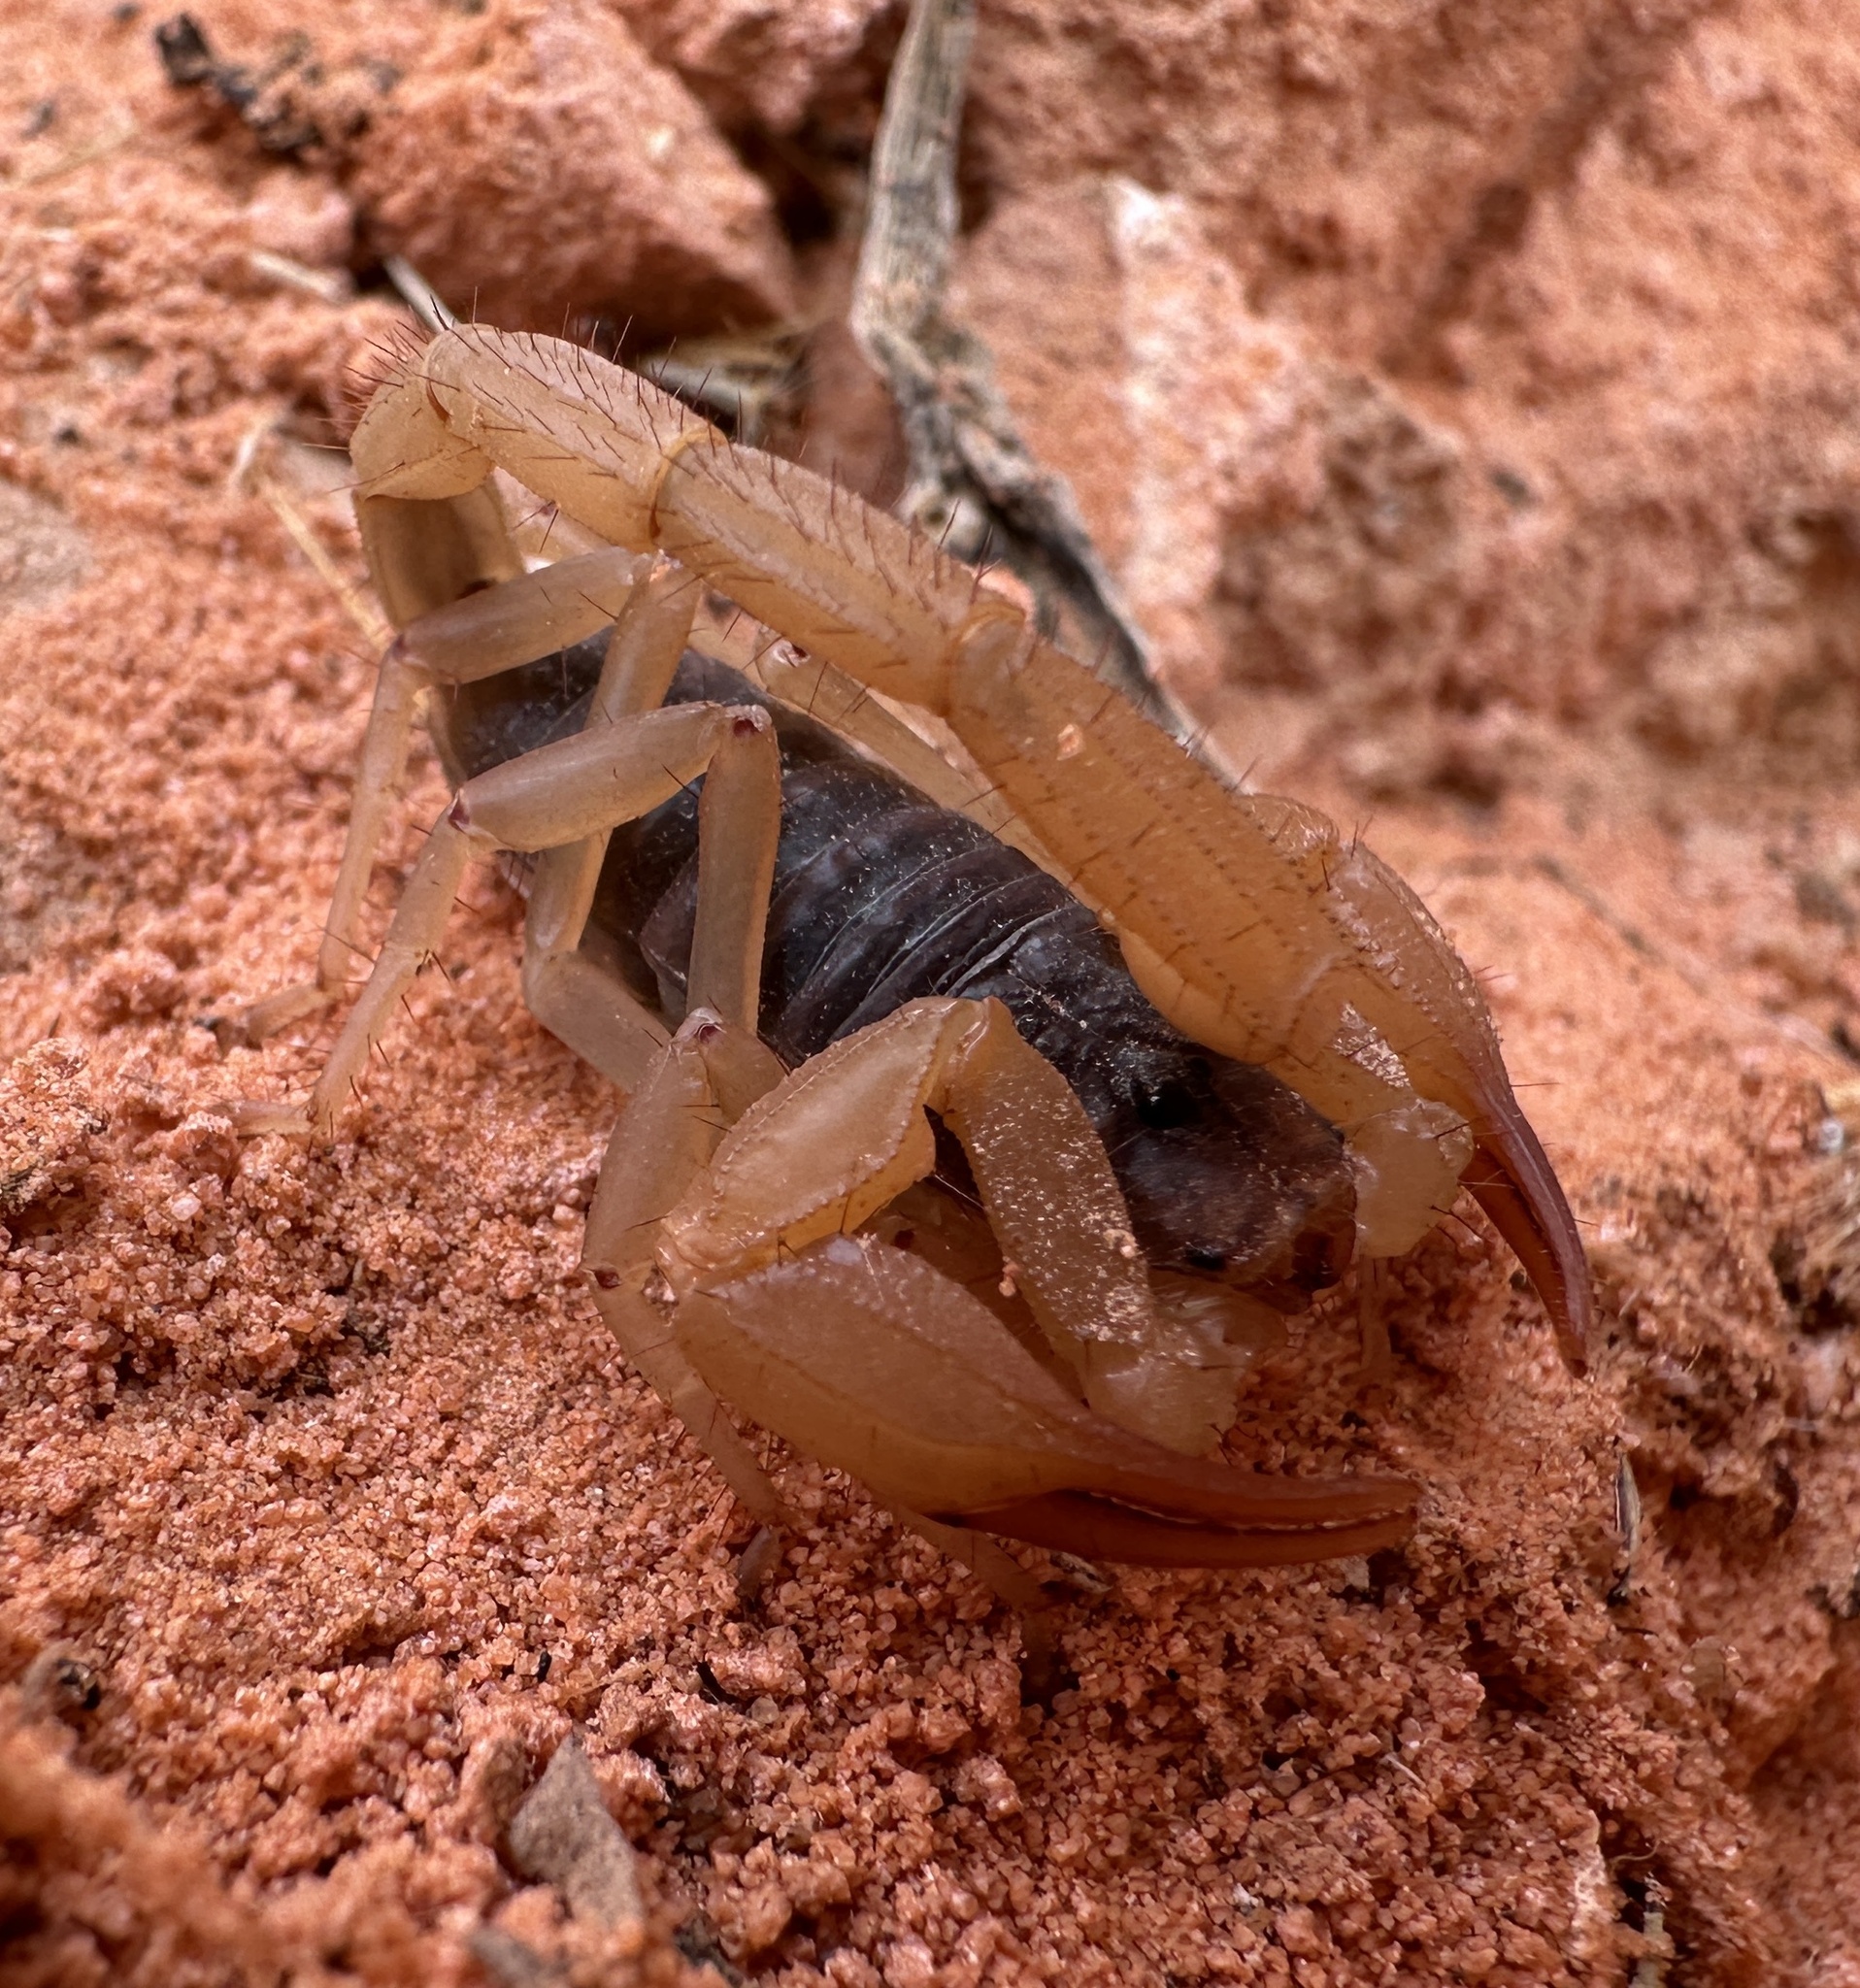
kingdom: Animalia
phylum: Arthropoda
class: Arachnida
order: Scorpiones
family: Vaejovidae
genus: Smeringurus
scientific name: Smeringurus vachoni
